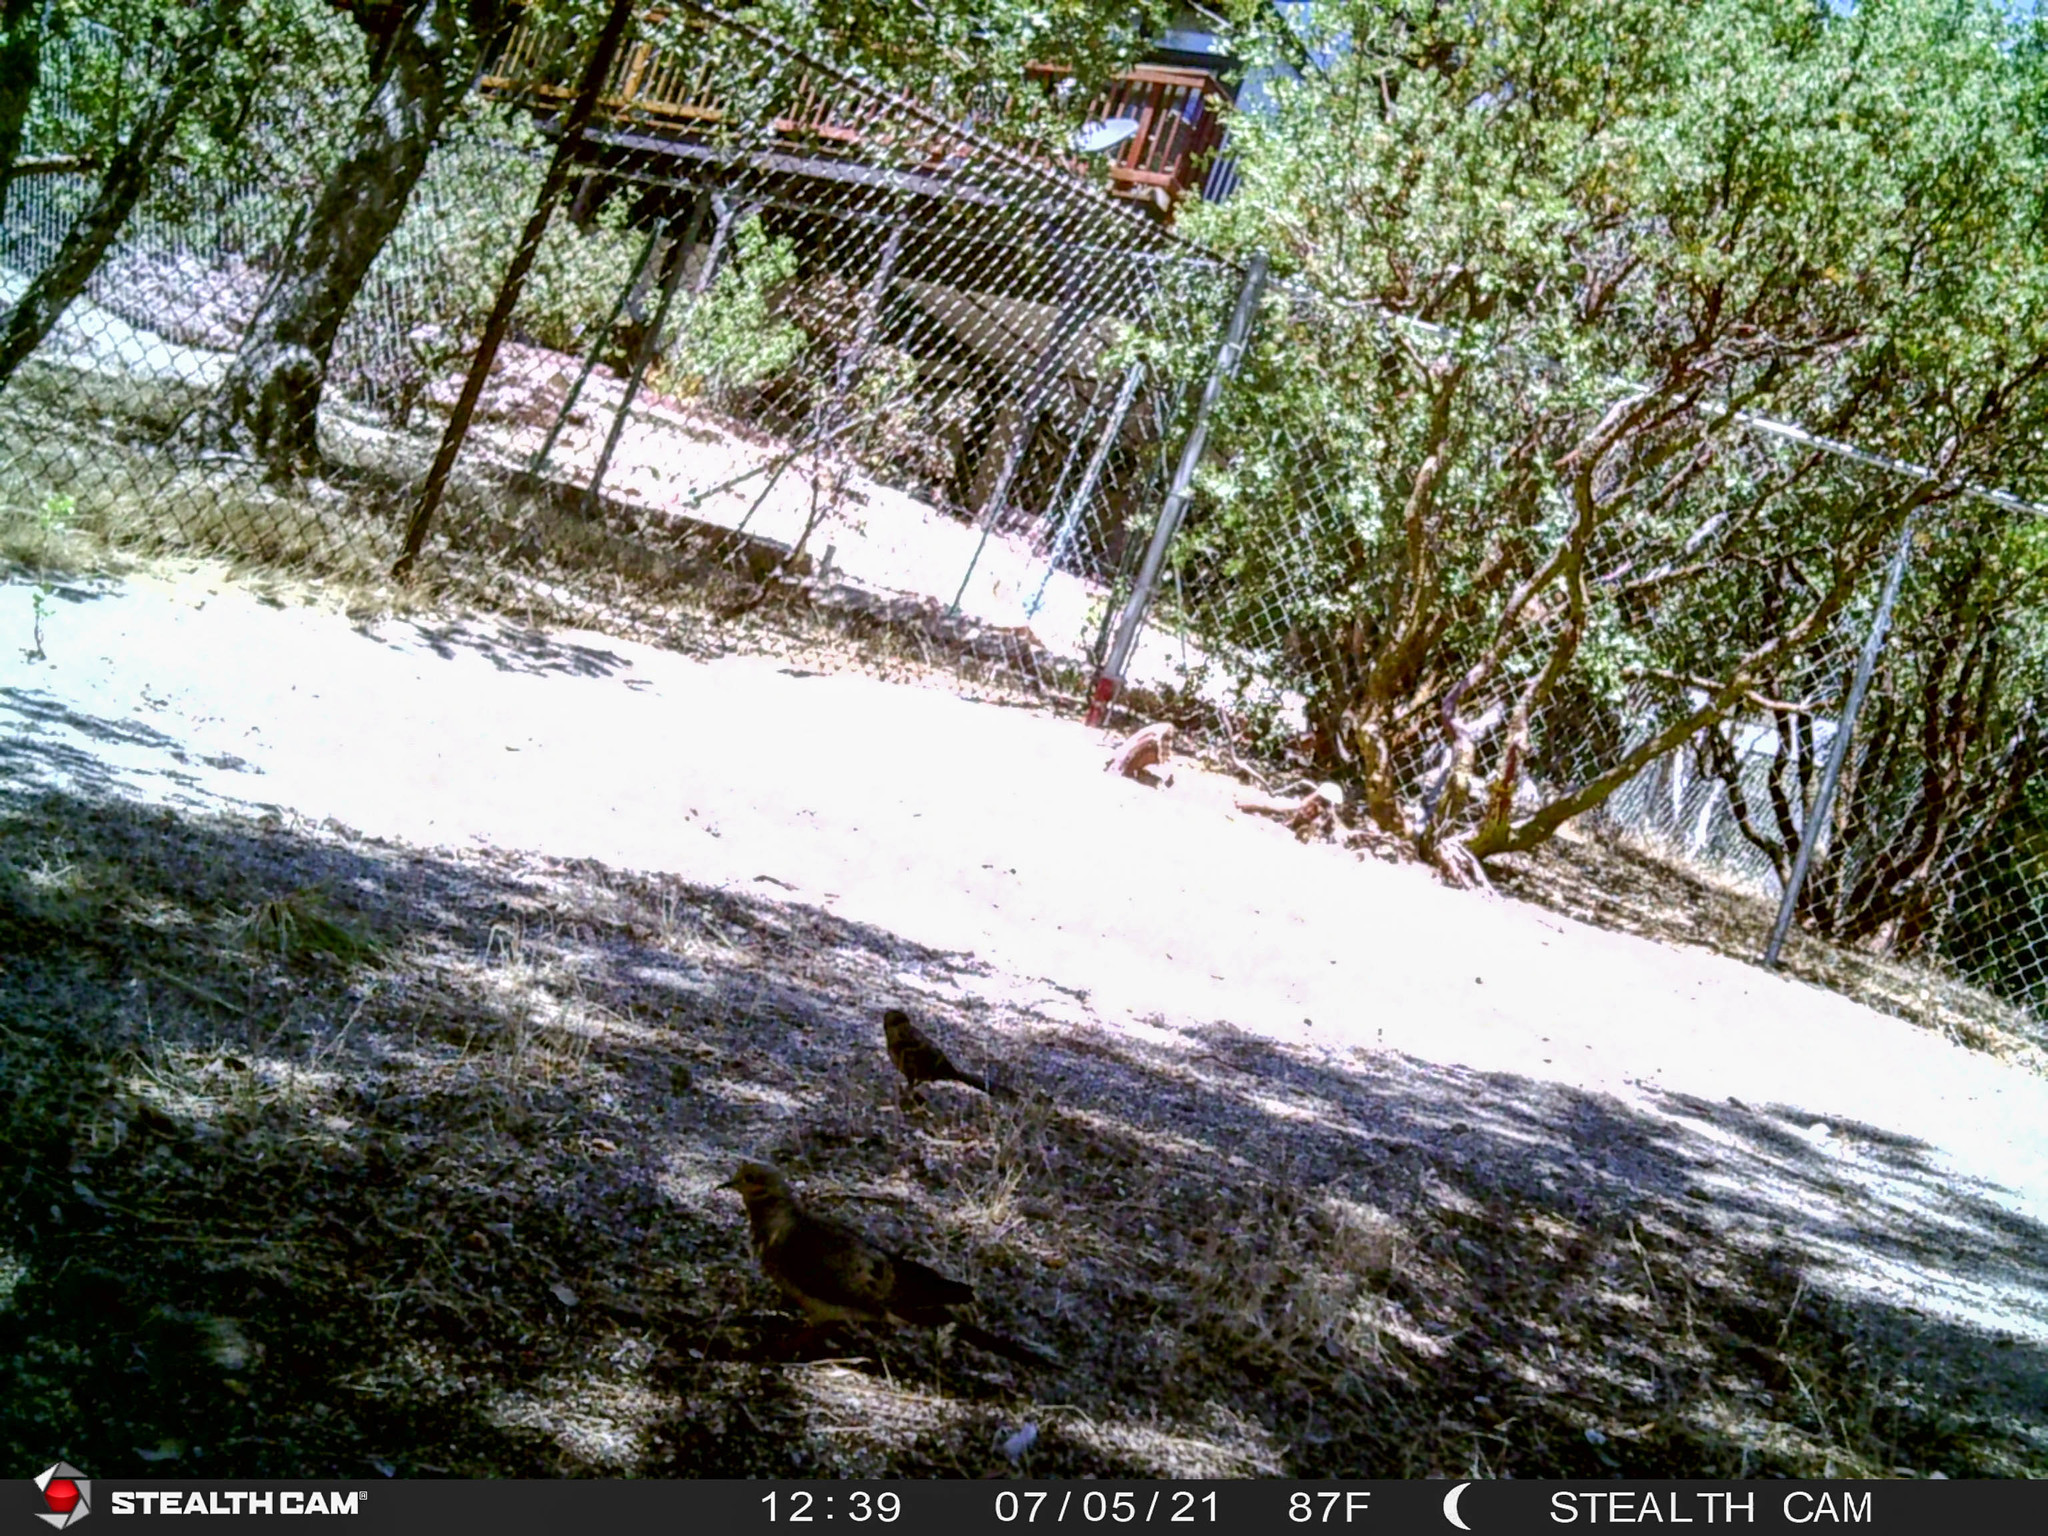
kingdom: Animalia
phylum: Chordata
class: Aves
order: Columbiformes
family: Columbidae
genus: Zenaida
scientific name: Zenaida macroura
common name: Mourning dove
